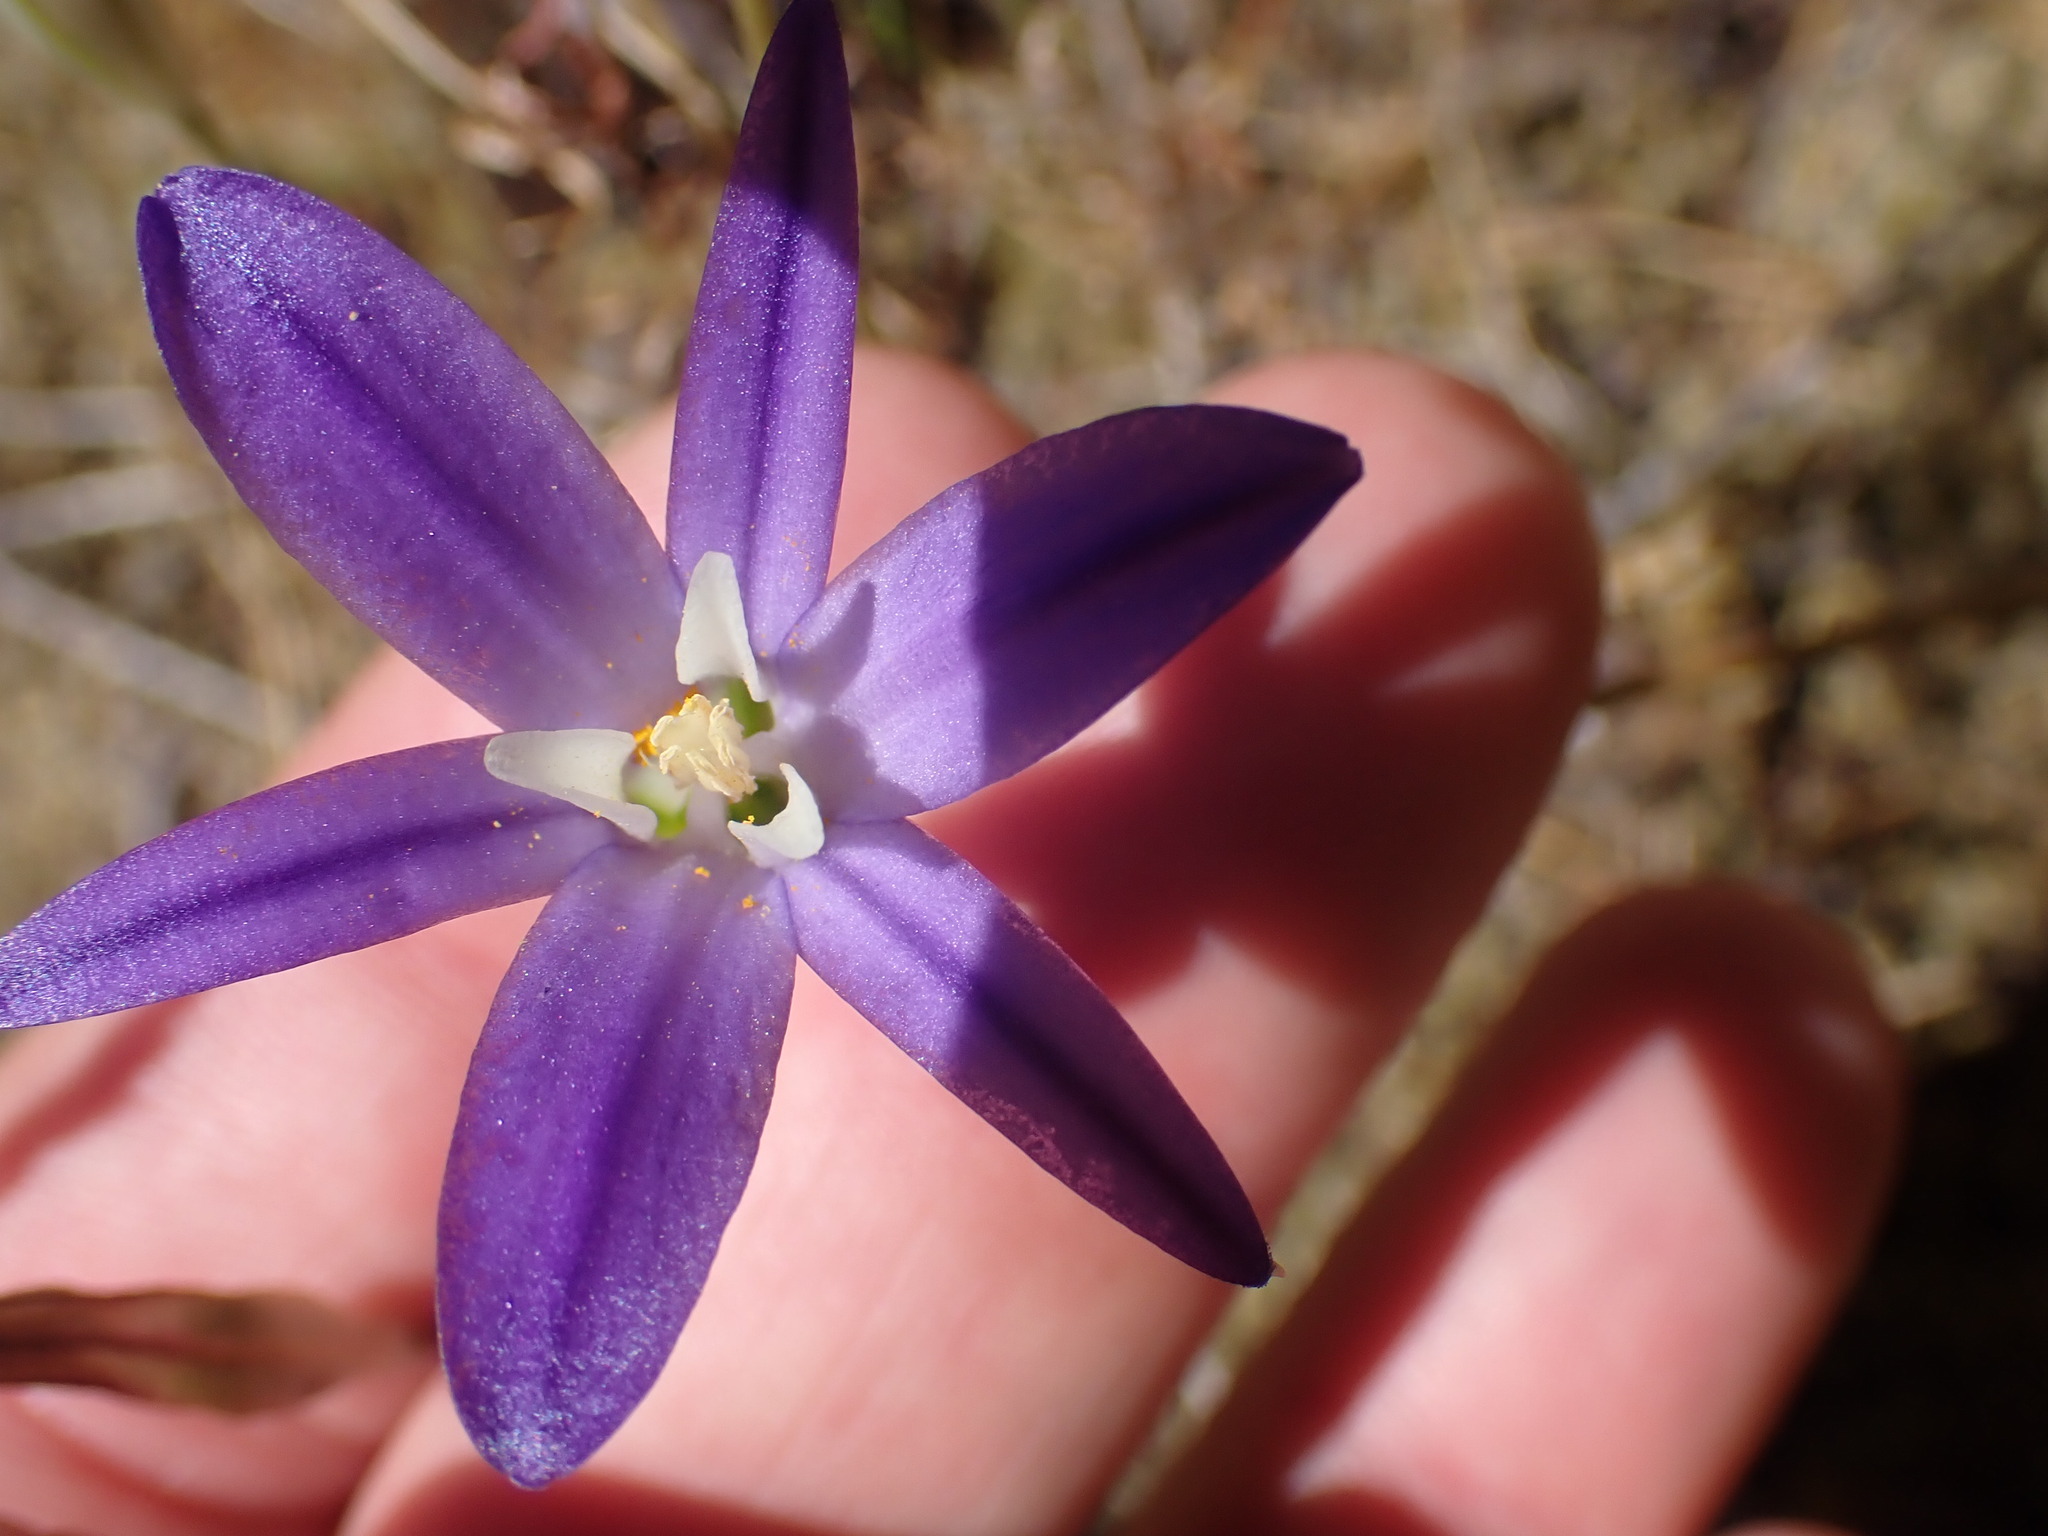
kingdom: Plantae
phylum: Tracheophyta
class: Liliopsida
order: Asparagales
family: Asparagaceae
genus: Brodiaea
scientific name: Brodiaea coronaria
